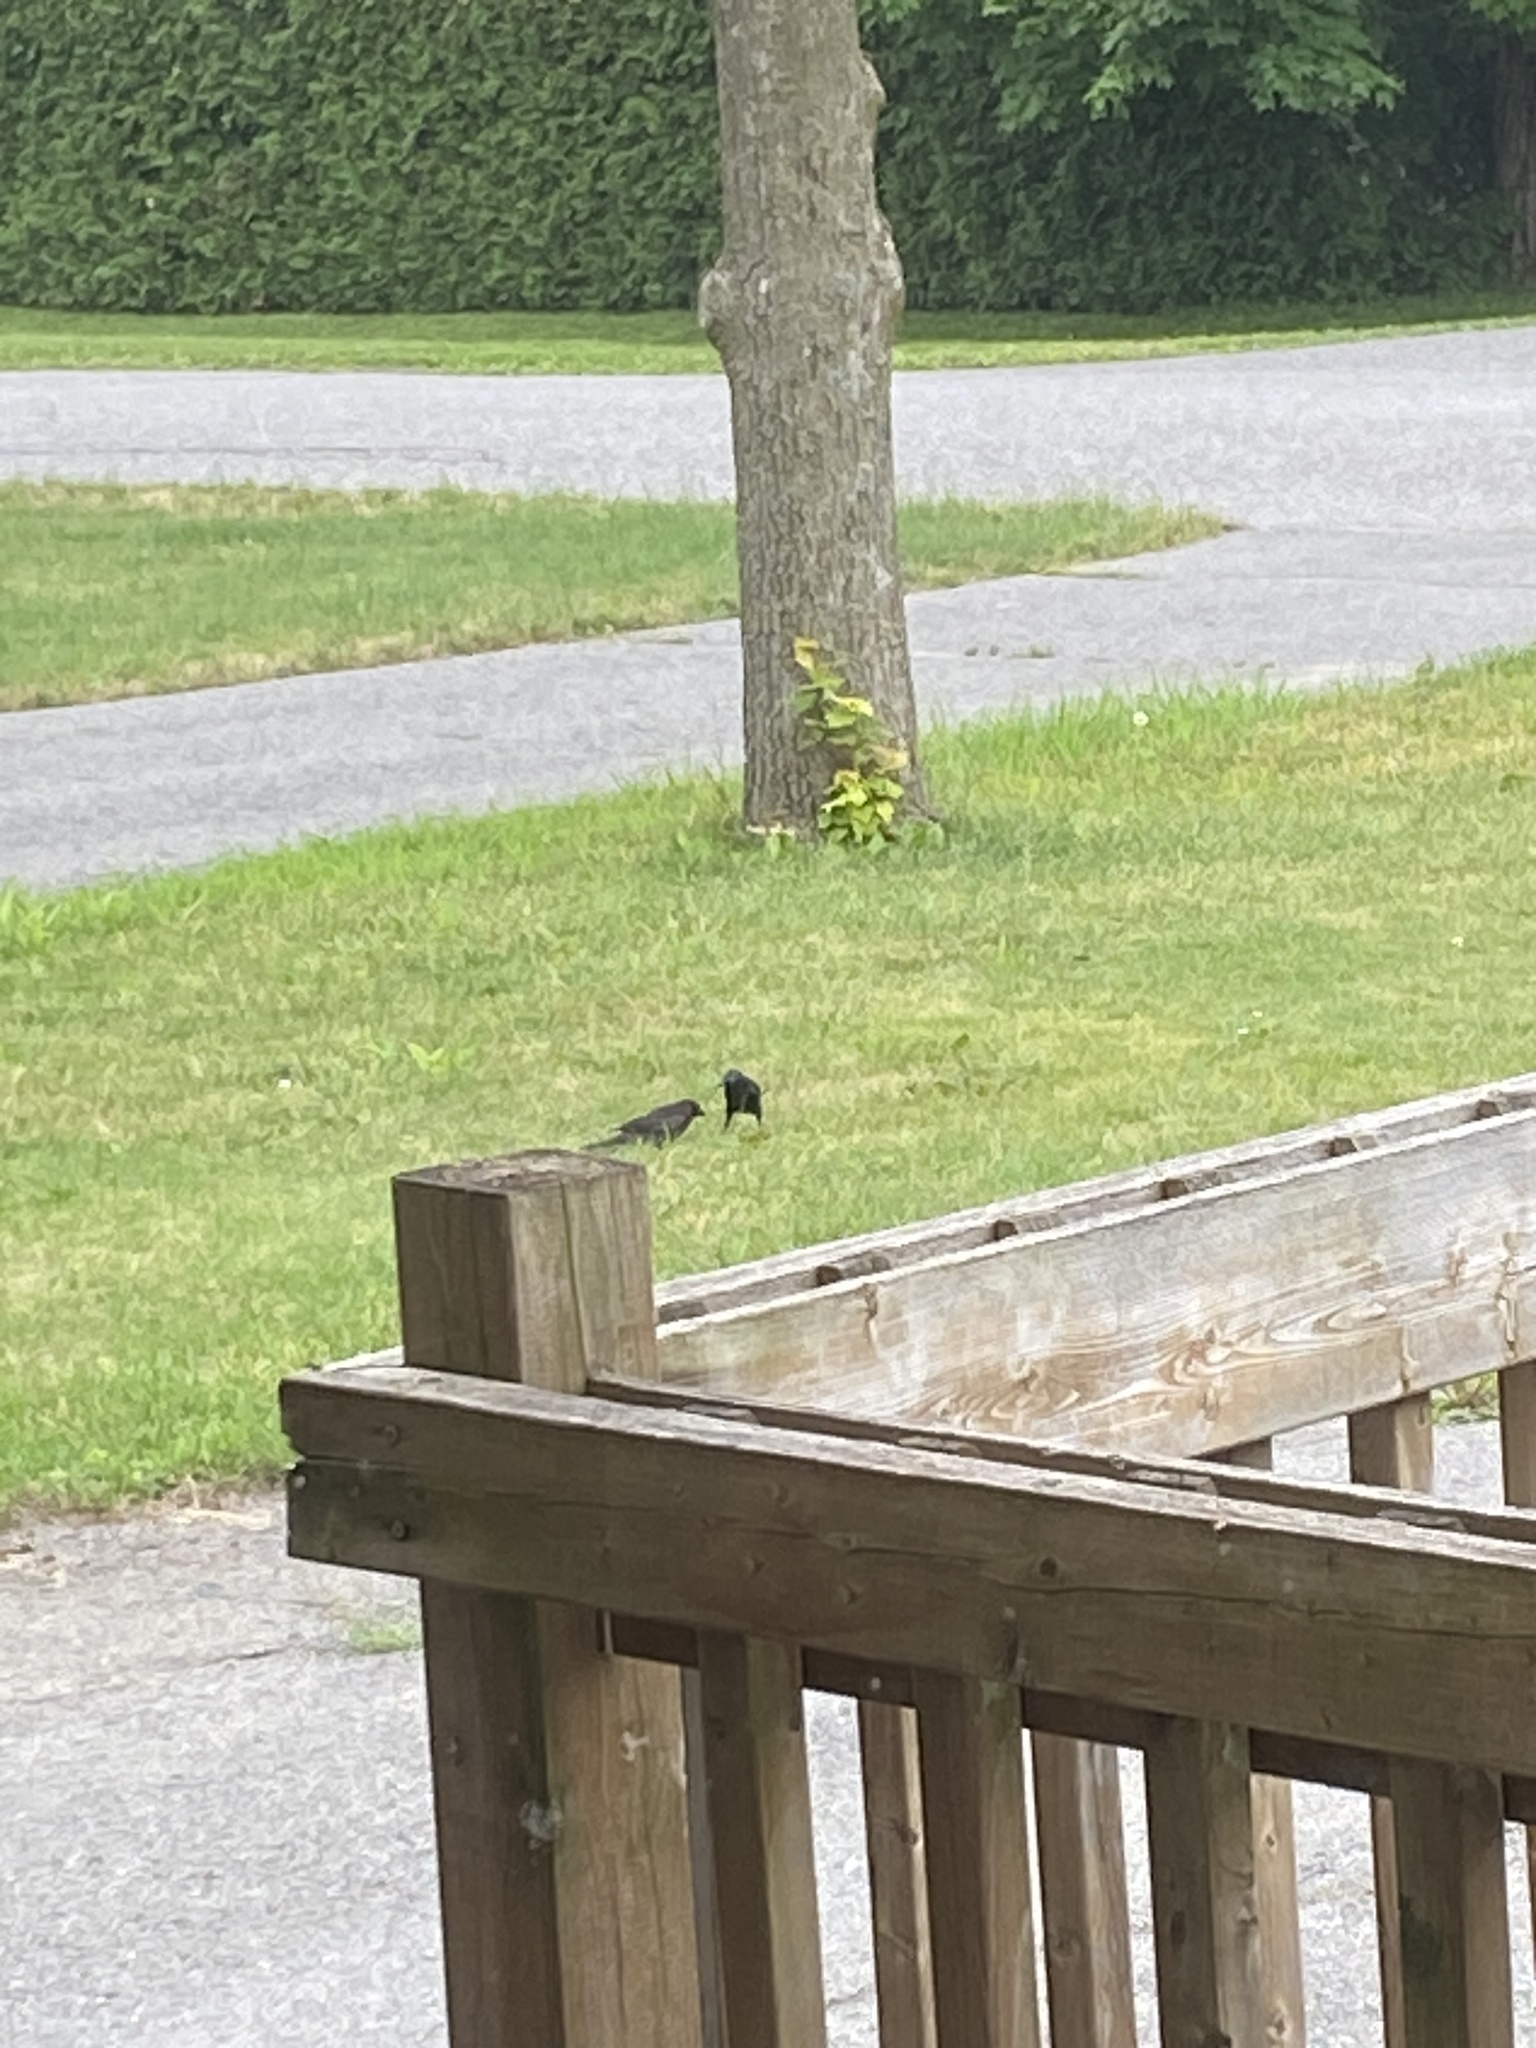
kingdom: Animalia
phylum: Chordata
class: Aves
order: Passeriformes
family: Icteridae
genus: Quiscalus
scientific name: Quiscalus quiscula
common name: Common grackle
